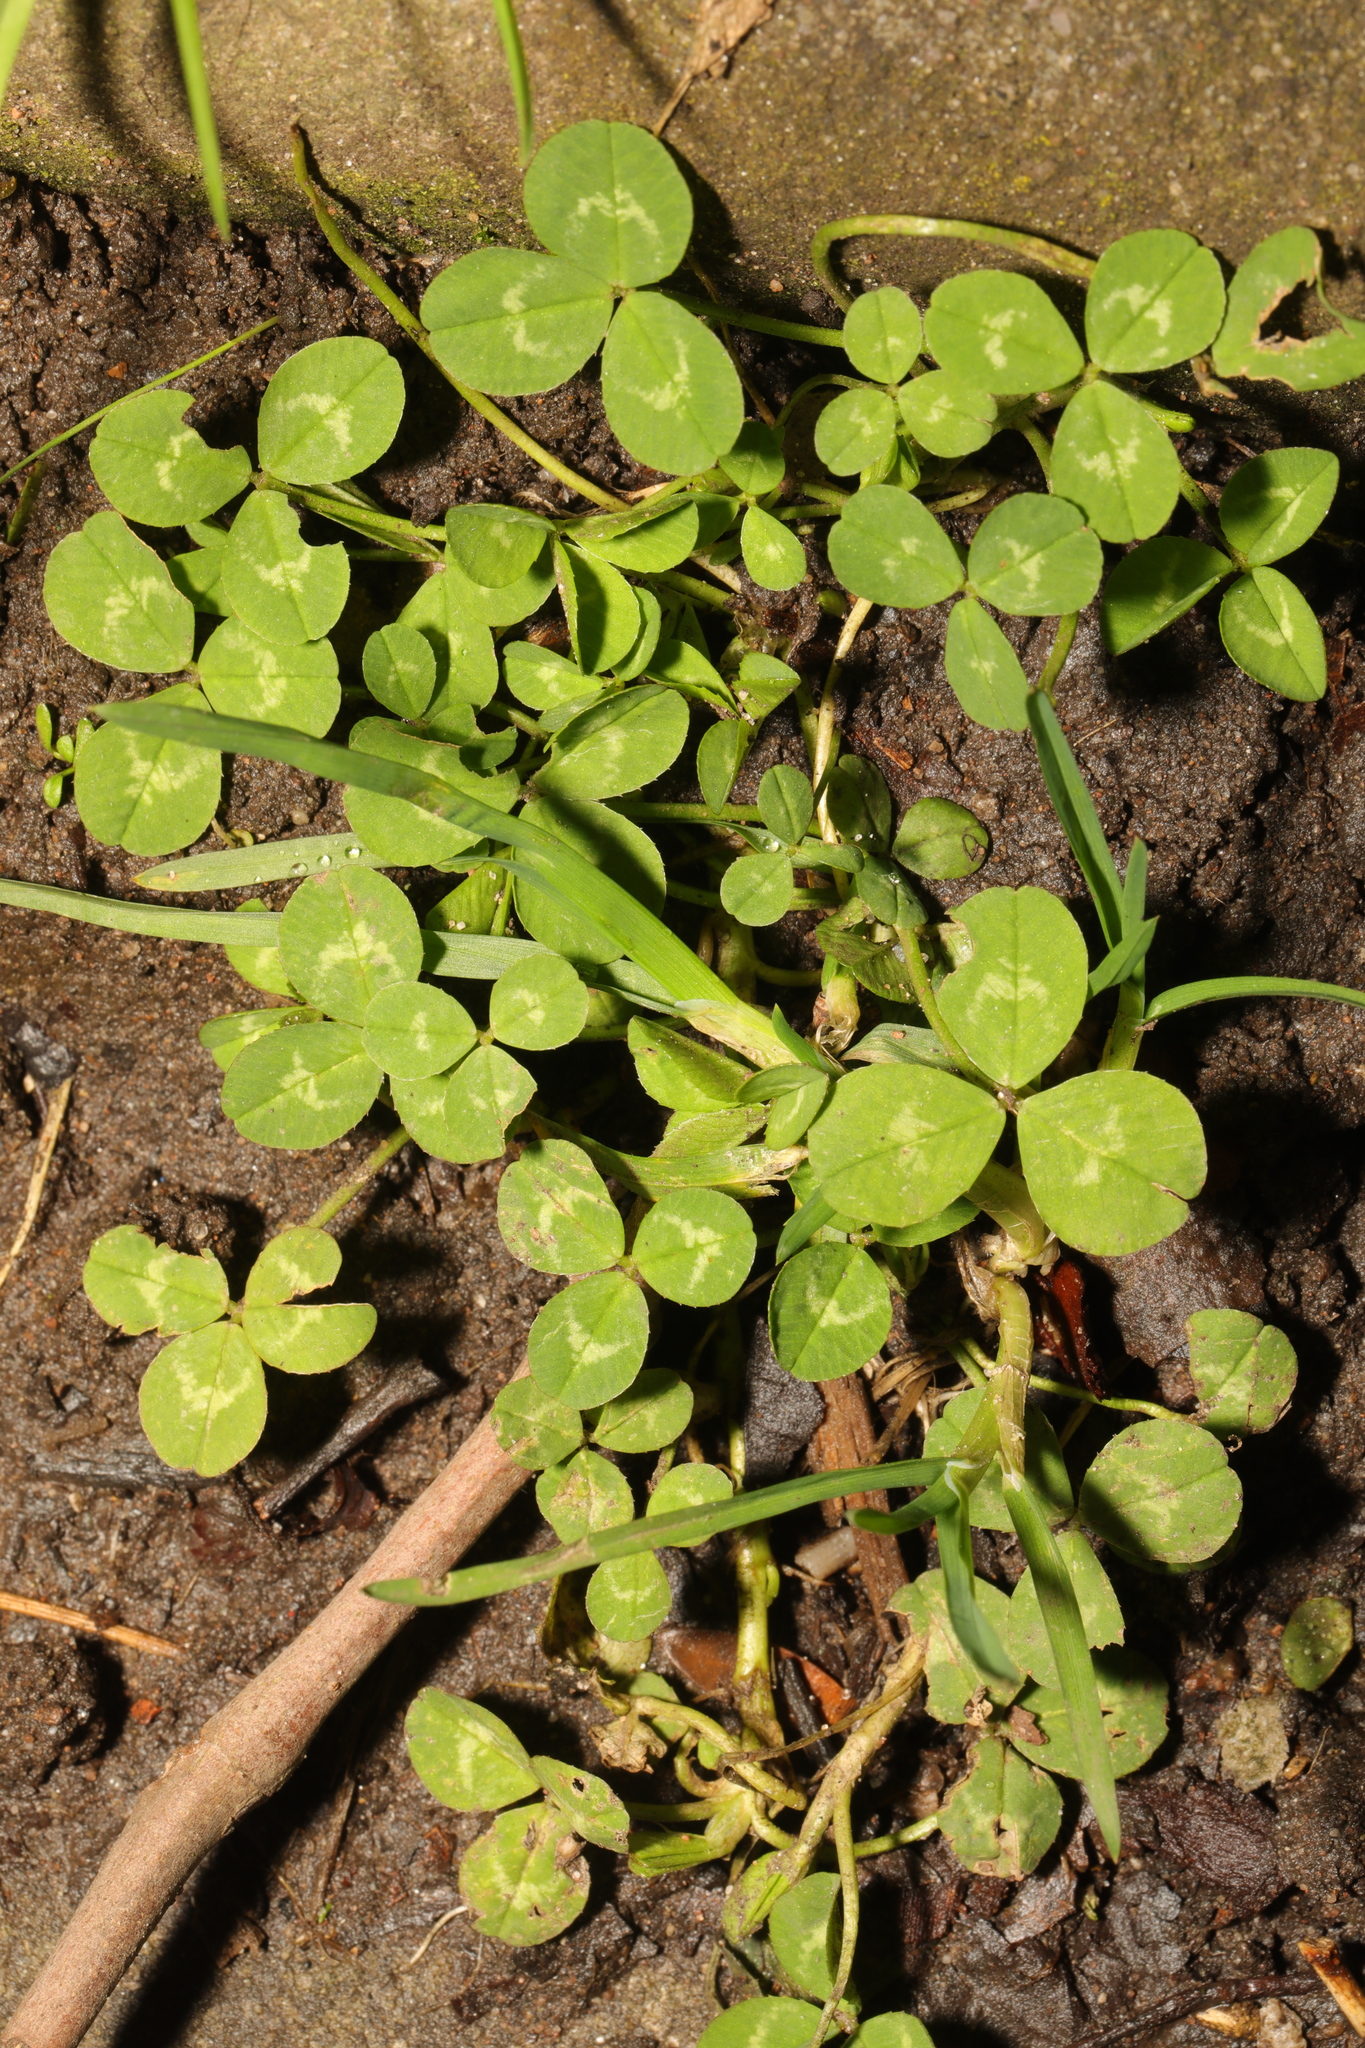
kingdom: Plantae
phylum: Tracheophyta
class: Magnoliopsida
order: Fabales
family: Fabaceae
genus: Trifolium
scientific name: Trifolium repens
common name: White clover
